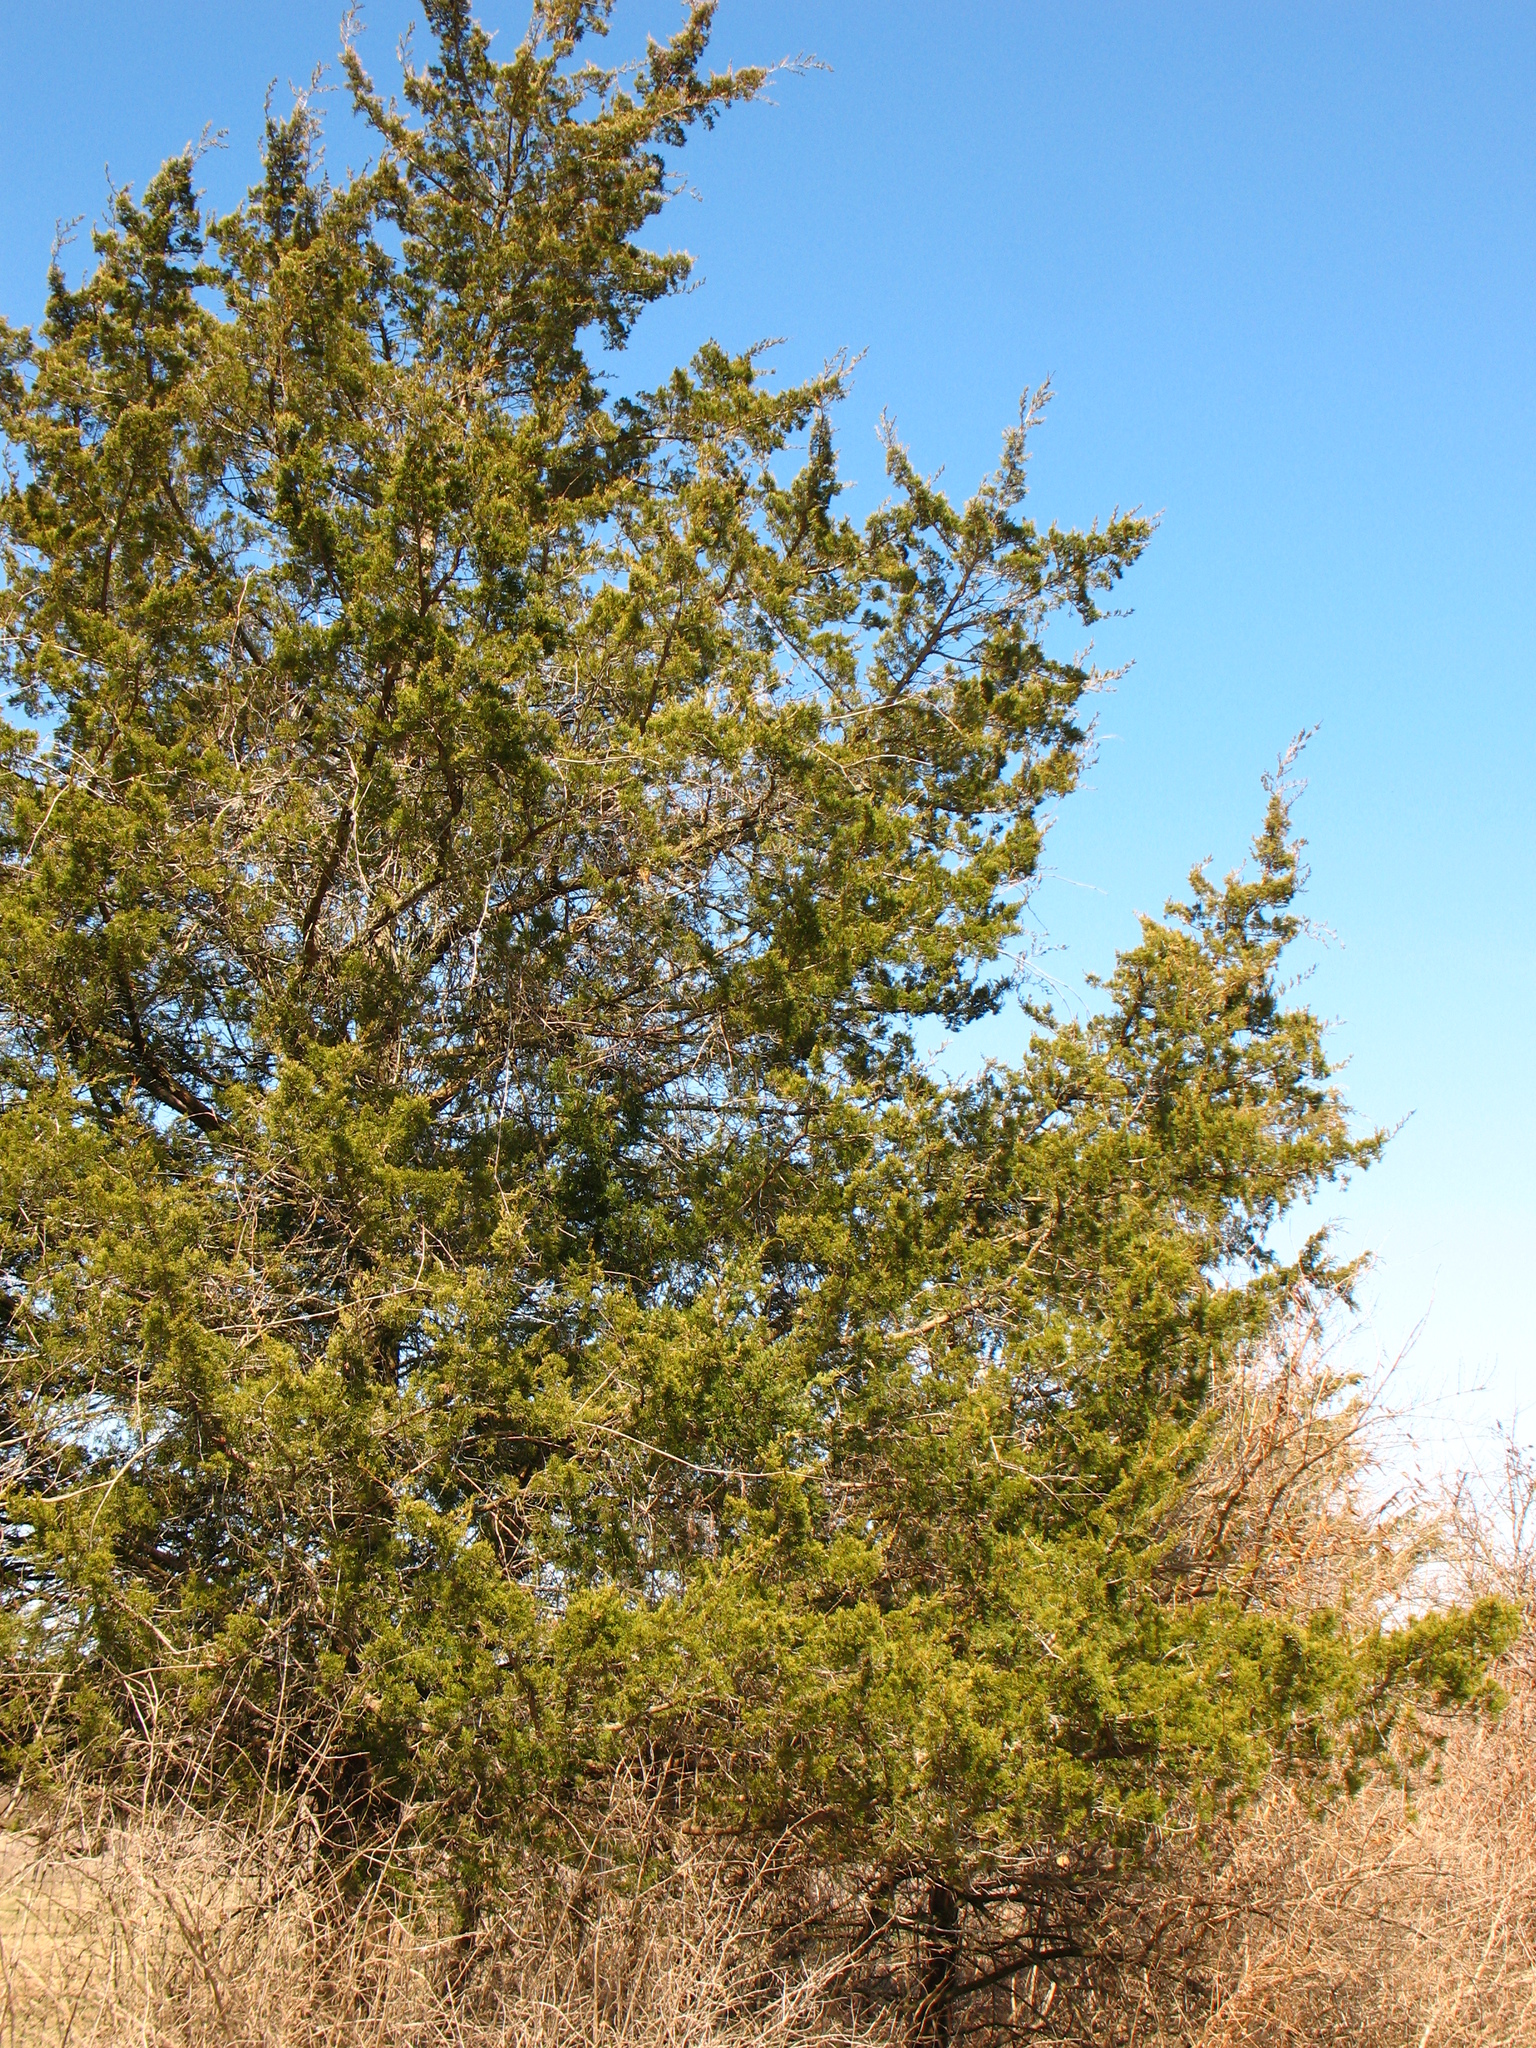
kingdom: Plantae
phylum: Tracheophyta
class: Pinopsida
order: Pinales
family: Cupressaceae
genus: Juniperus
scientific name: Juniperus virginiana
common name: Red juniper
